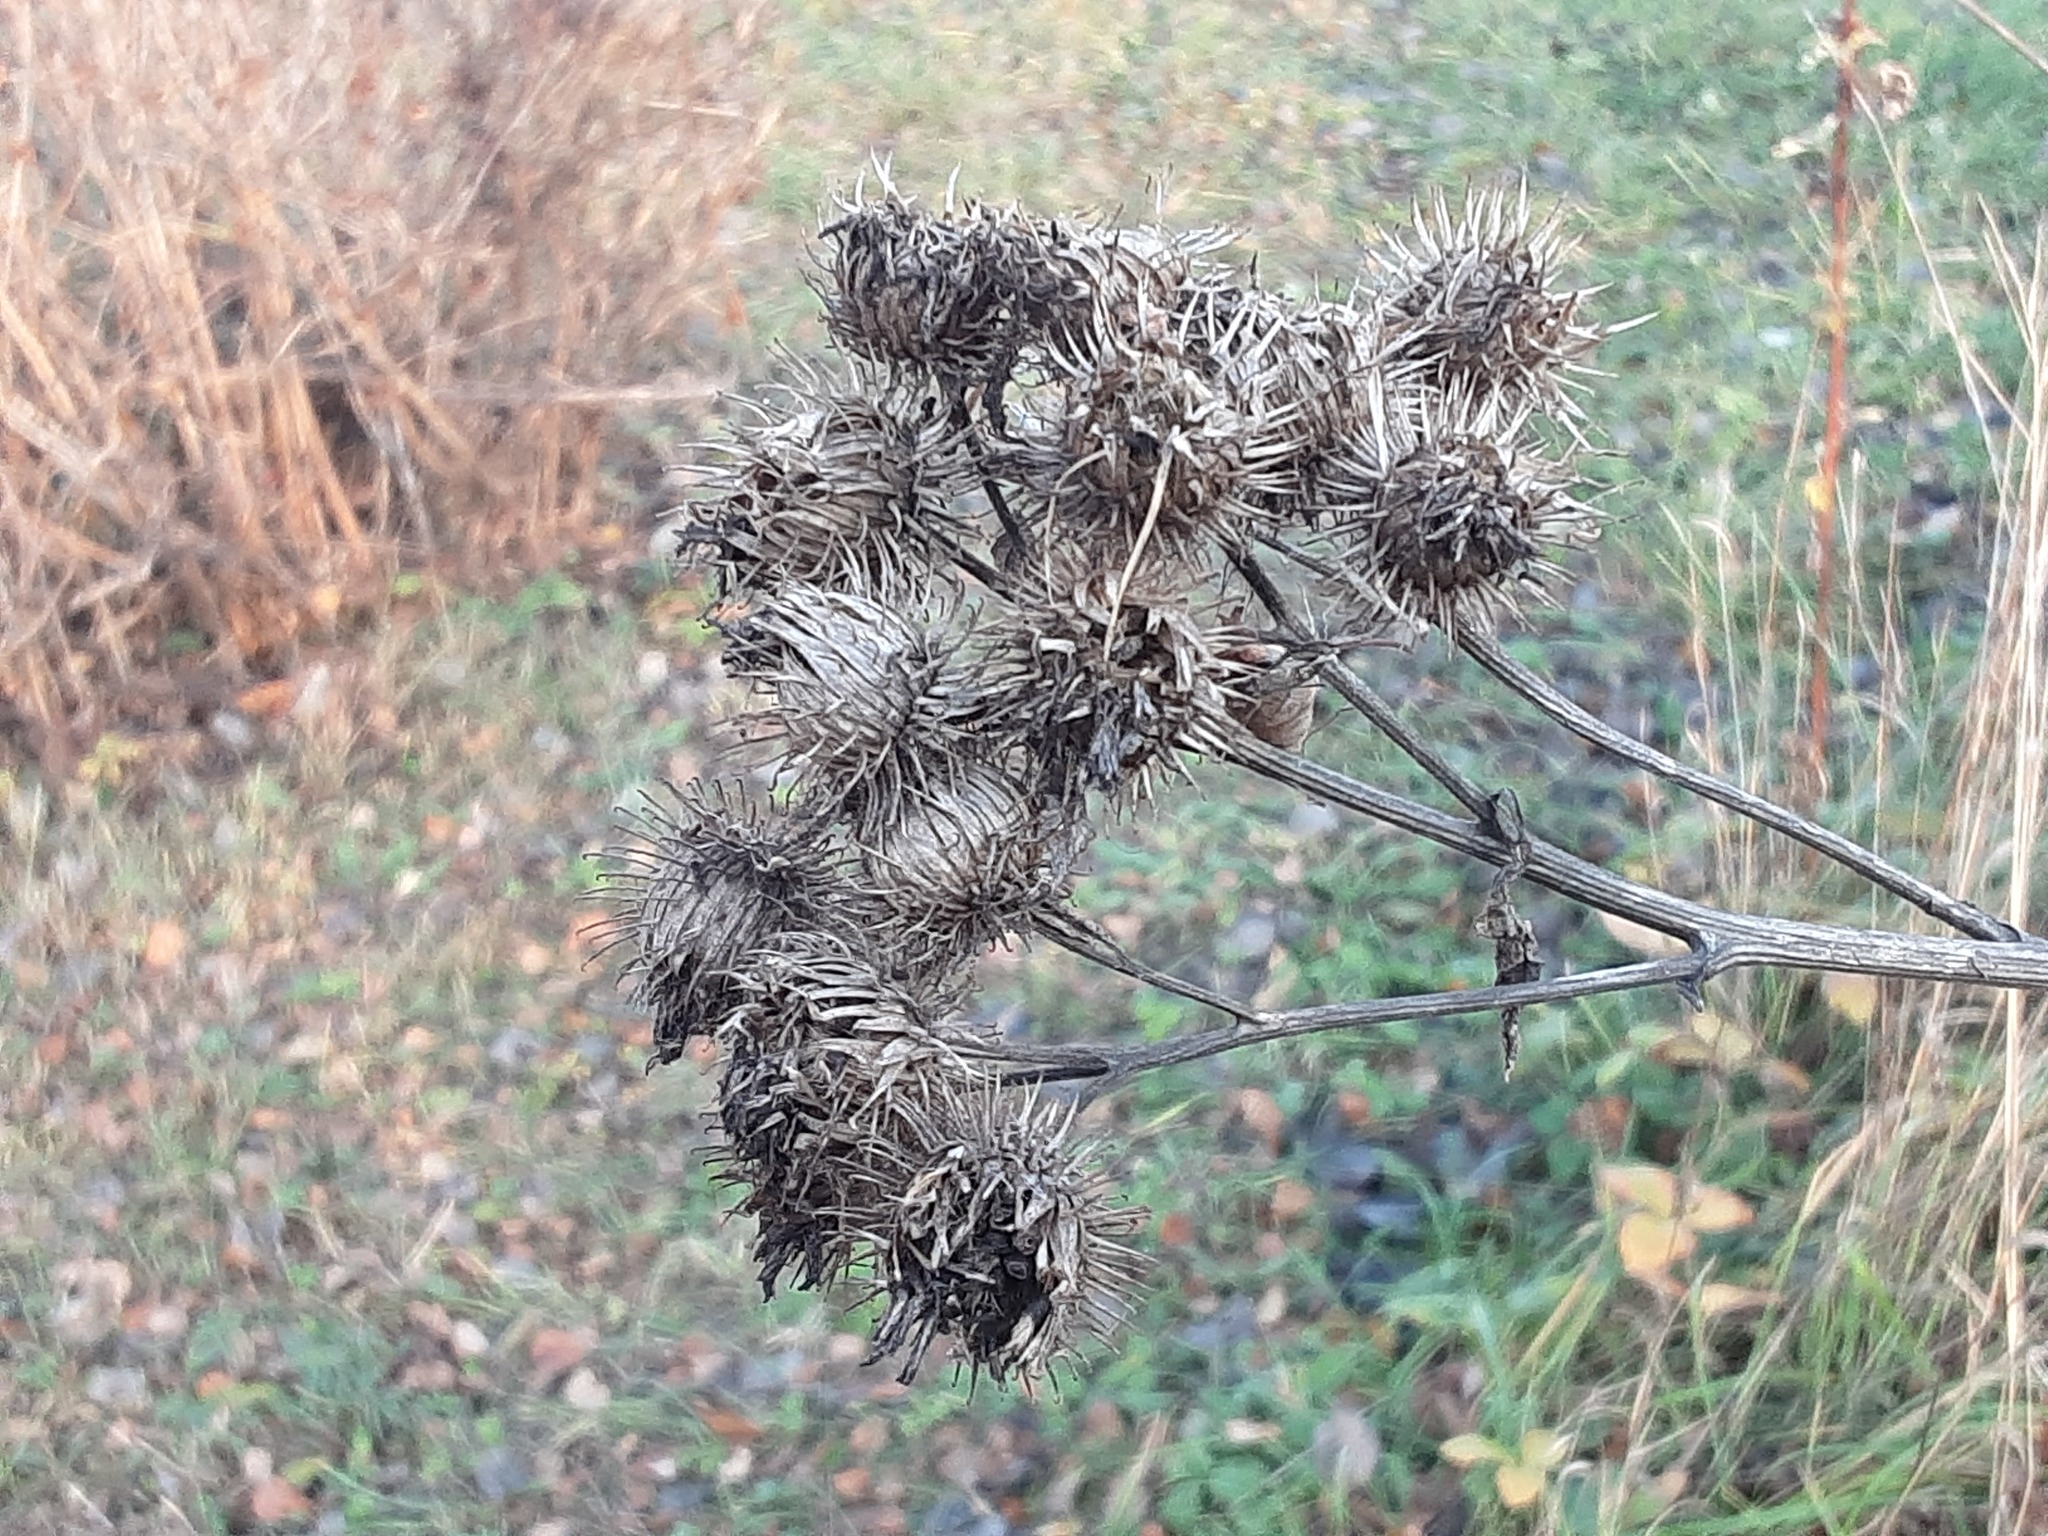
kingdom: Plantae
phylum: Tracheophyta
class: Magnoliopsida
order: Asterales
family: Asteraceae
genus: Arctium
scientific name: Arctium tomentosum
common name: Woolly burdock
